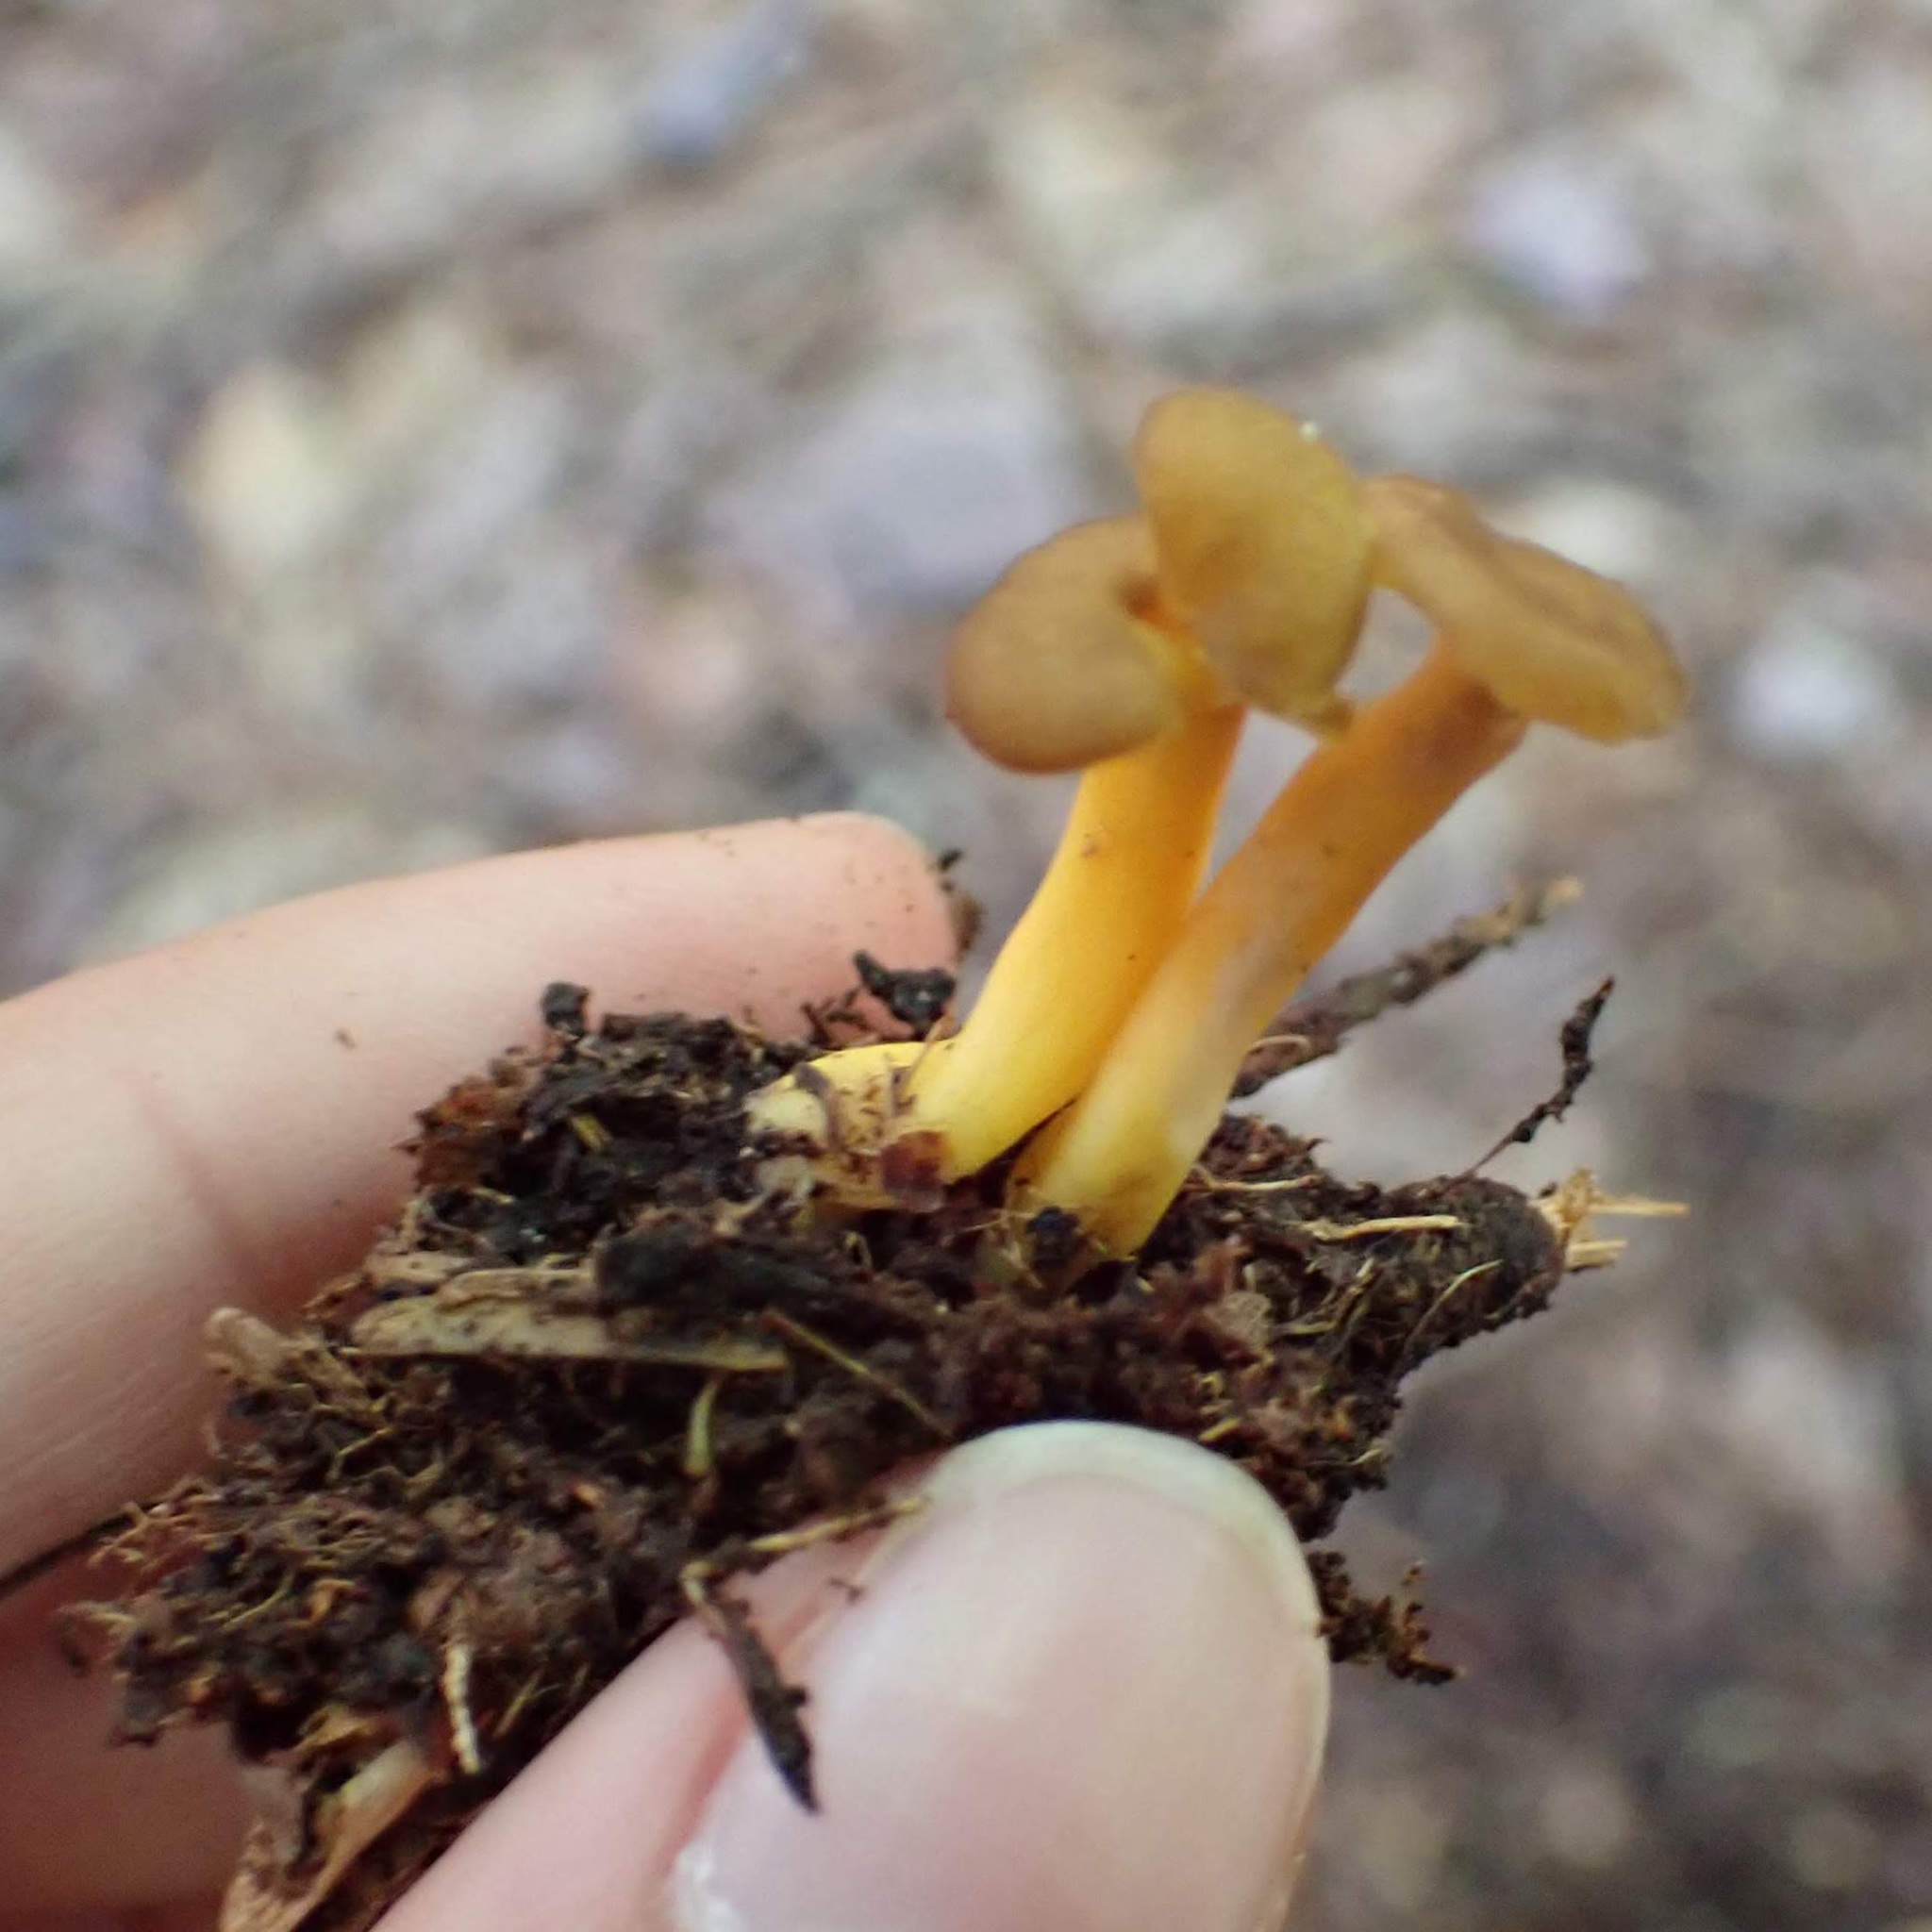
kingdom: Fungi
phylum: Basidiomycota
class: Agaricomycetes
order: Cantharellales
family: Hydnaceae
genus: Craterellus
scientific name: Craterellus tubaeformis
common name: Yellowfoot
